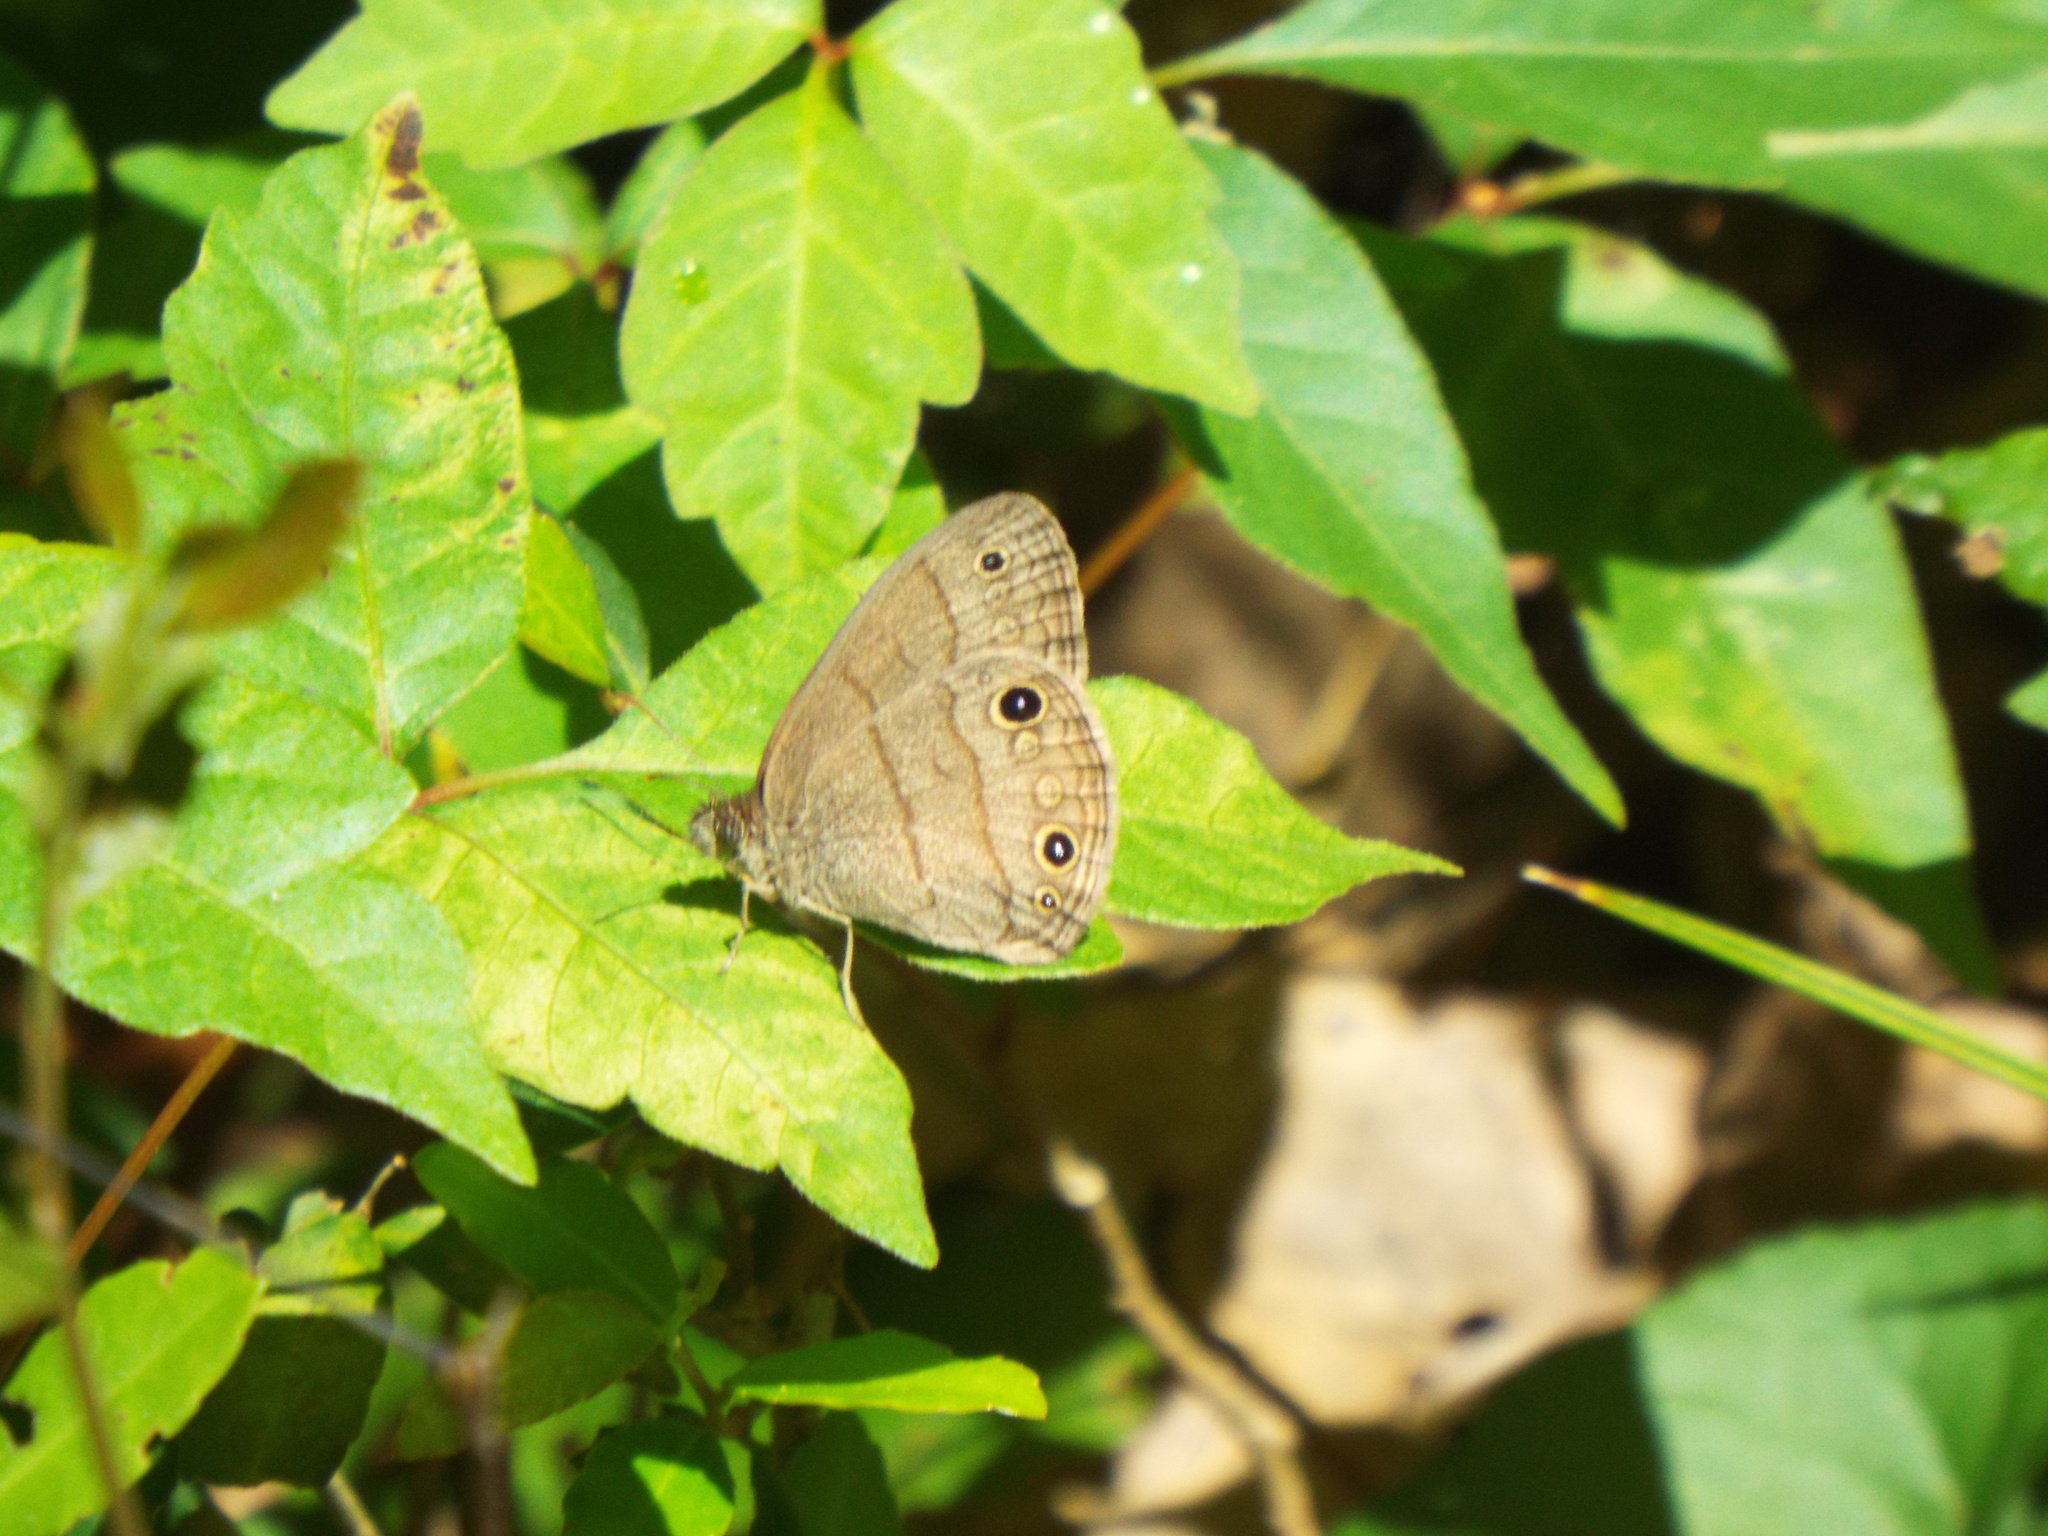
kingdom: Animalia
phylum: Arthropoda
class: Insecta
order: Lepidoptera
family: Nymphalidae
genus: Hermeuptychia
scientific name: Hermeuptychia hermes
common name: Hermes satyr
